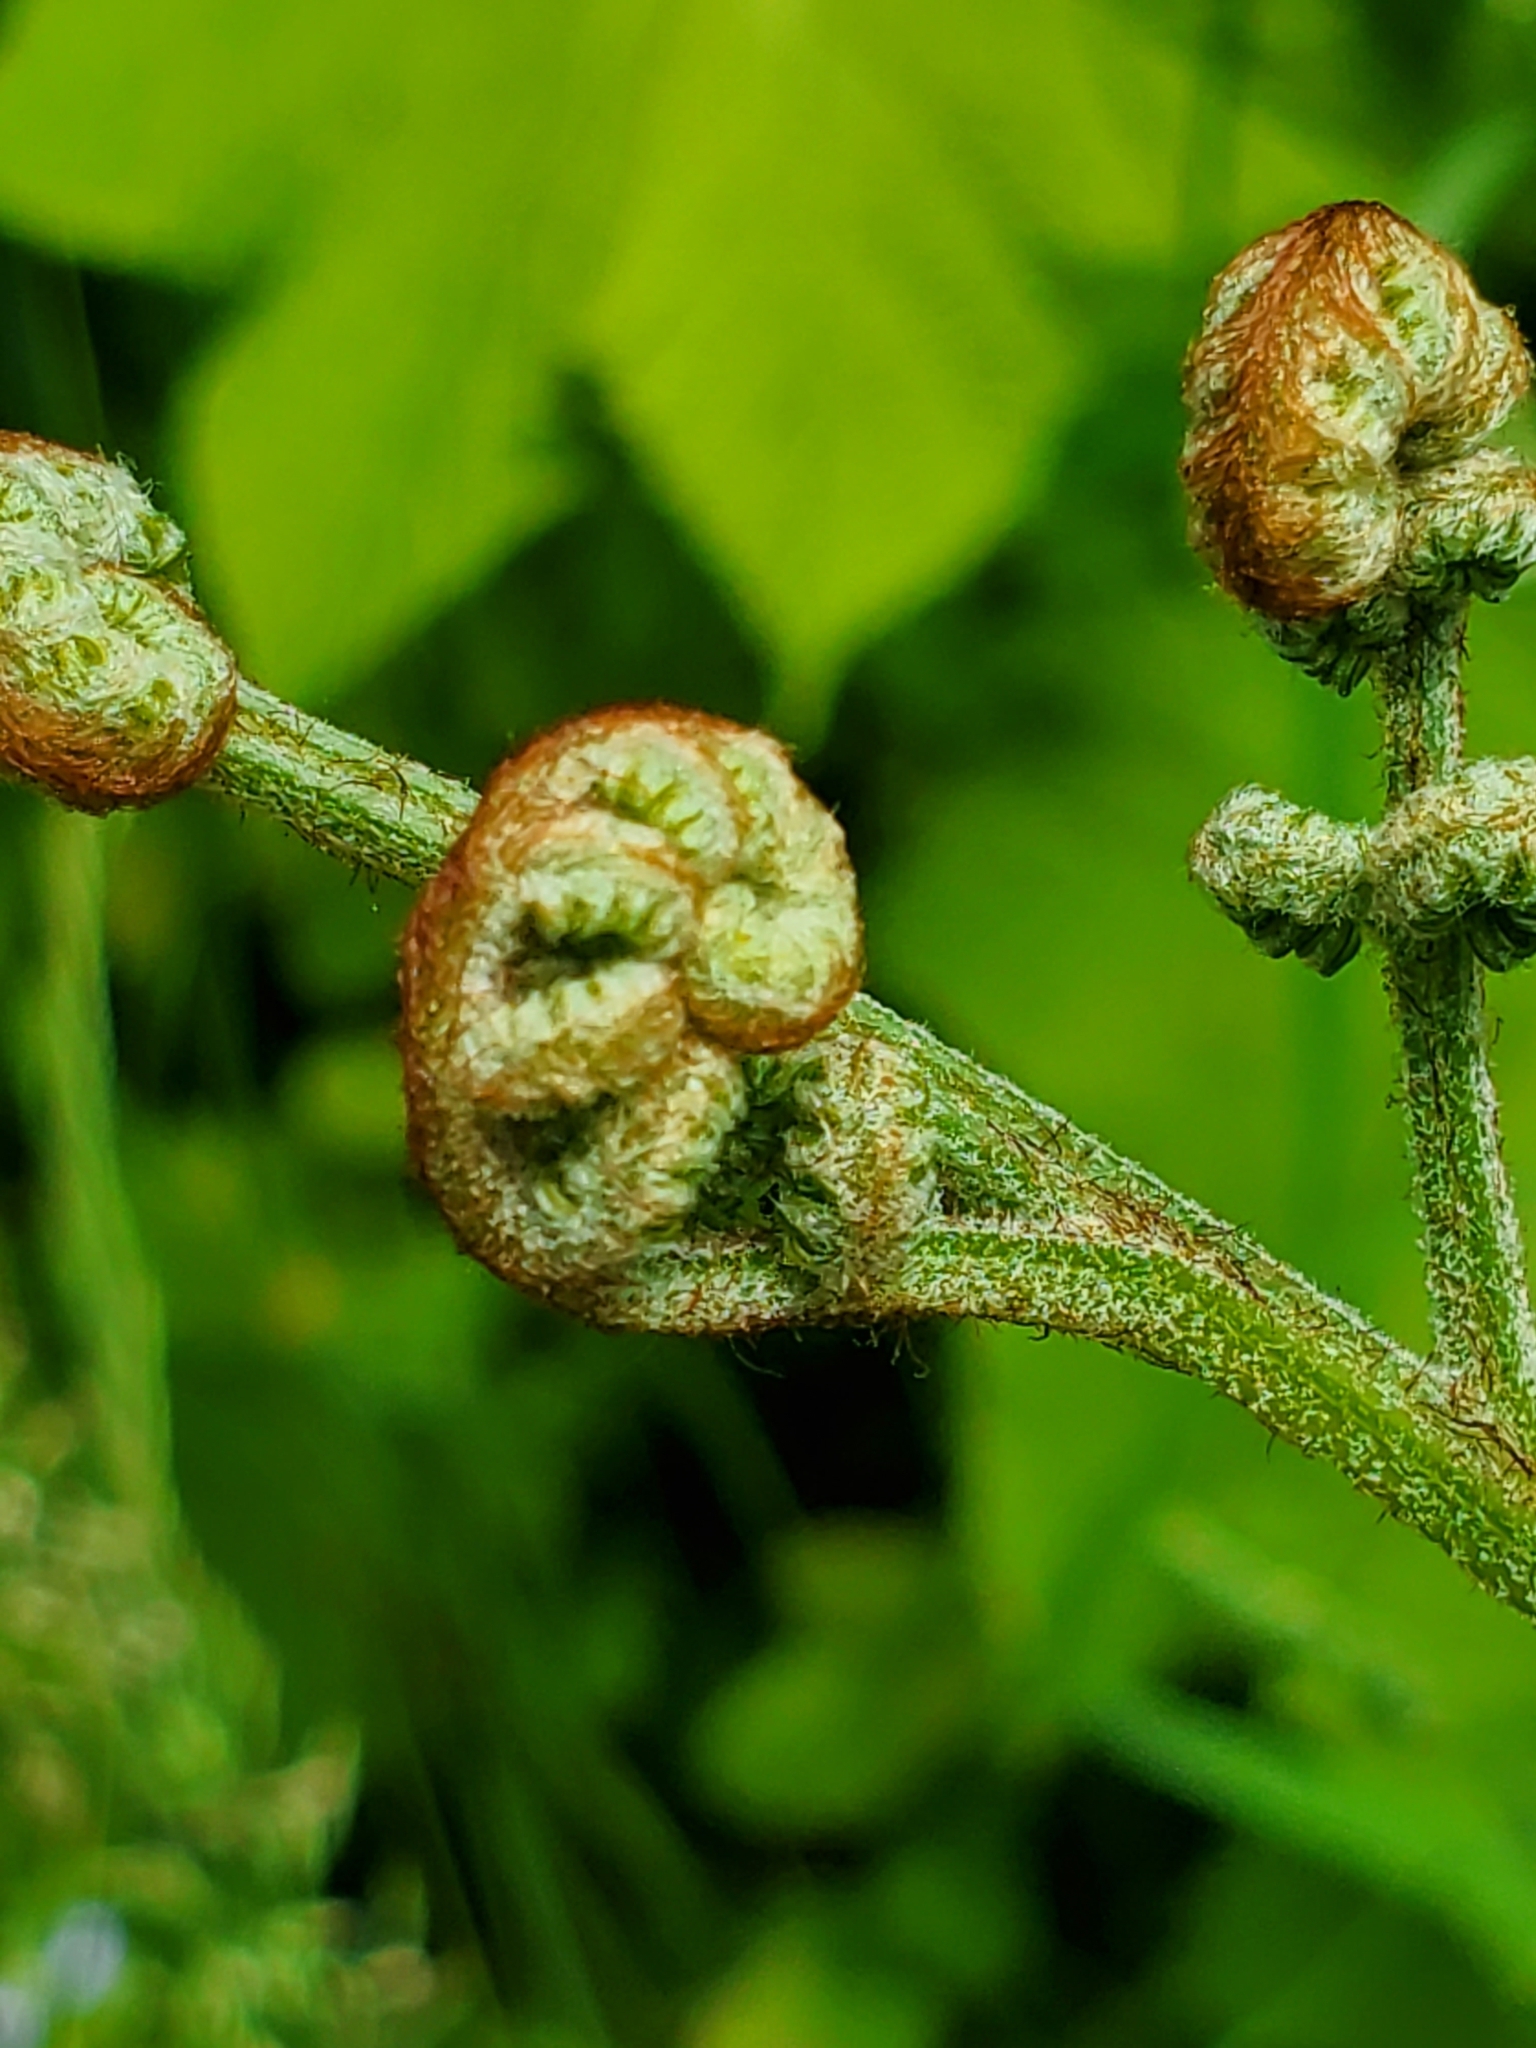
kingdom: Plantae
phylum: Tracheophyta
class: Polypodiopsida
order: Polypodiales
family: Dennstaedtiaceae
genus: Pteridium
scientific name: Pteridium aquilinum
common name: Bracken
